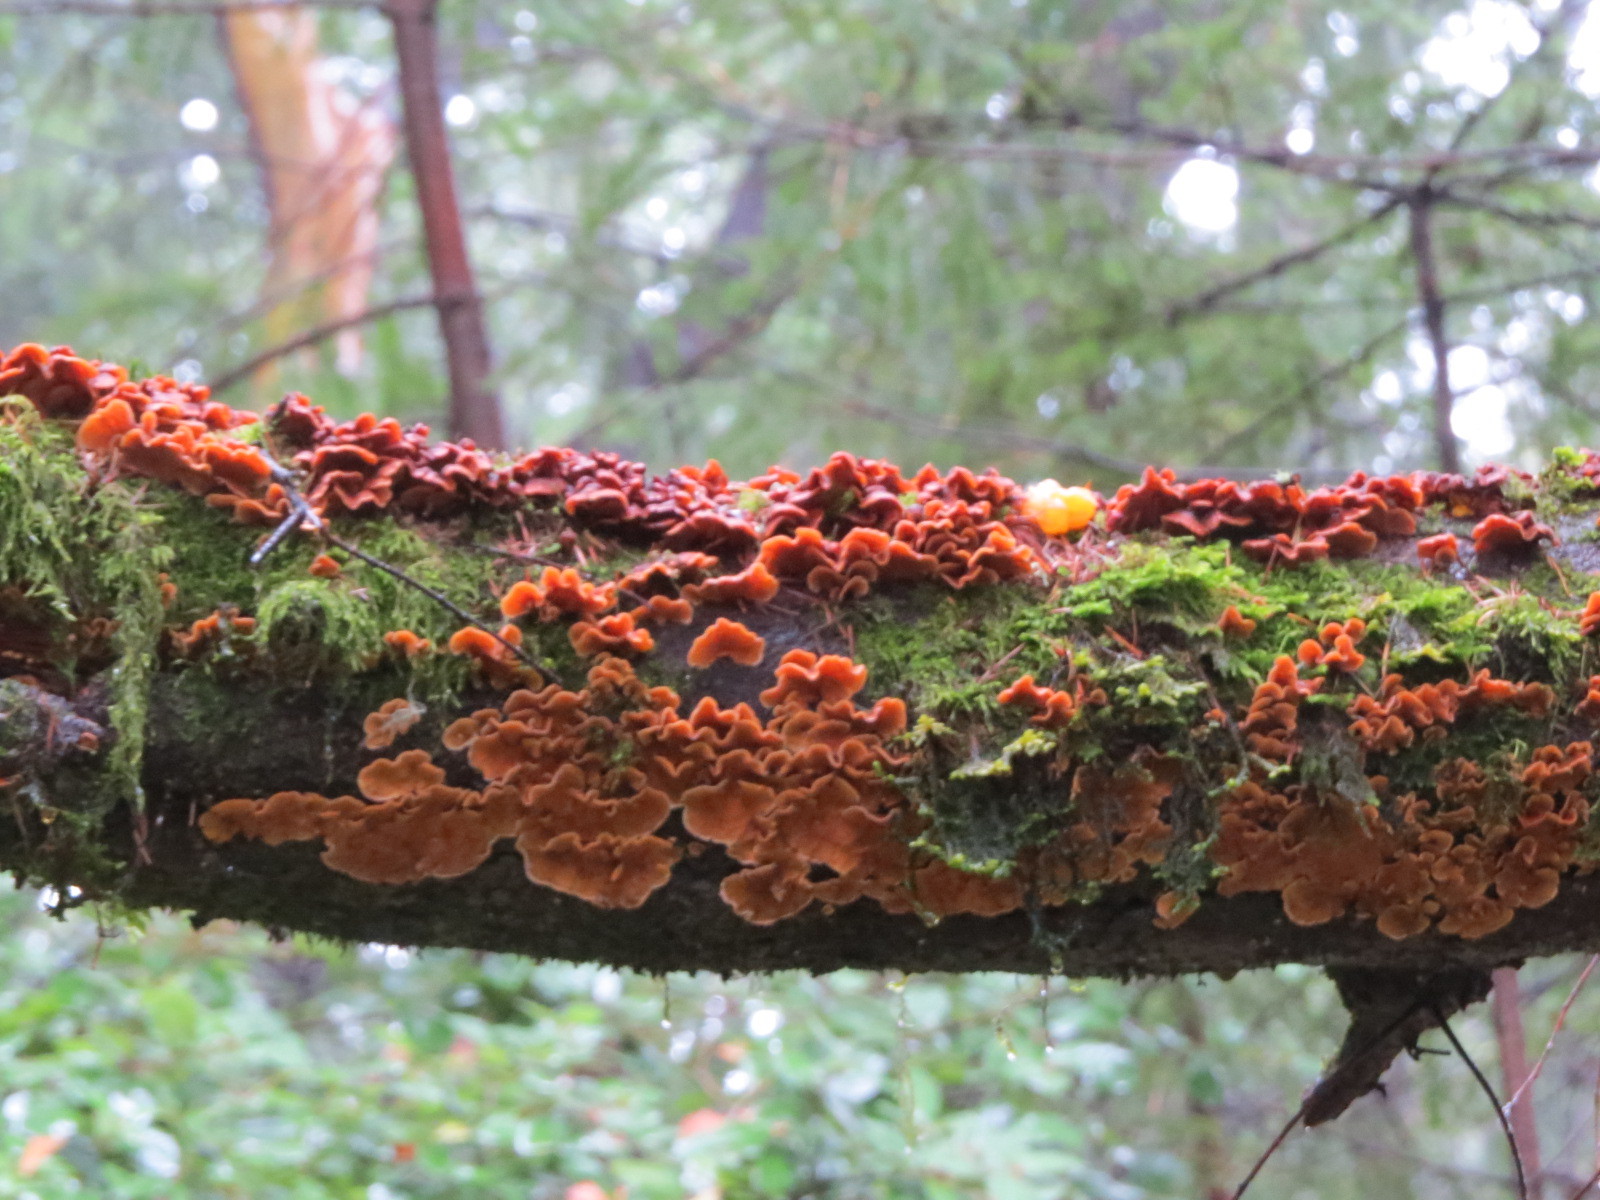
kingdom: Fungi
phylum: Basidiomycota
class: Agaricomycetes
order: Russulales
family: Stereaceae
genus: Stereum
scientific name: Stereum hirsutum
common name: Hairy curtain crust
